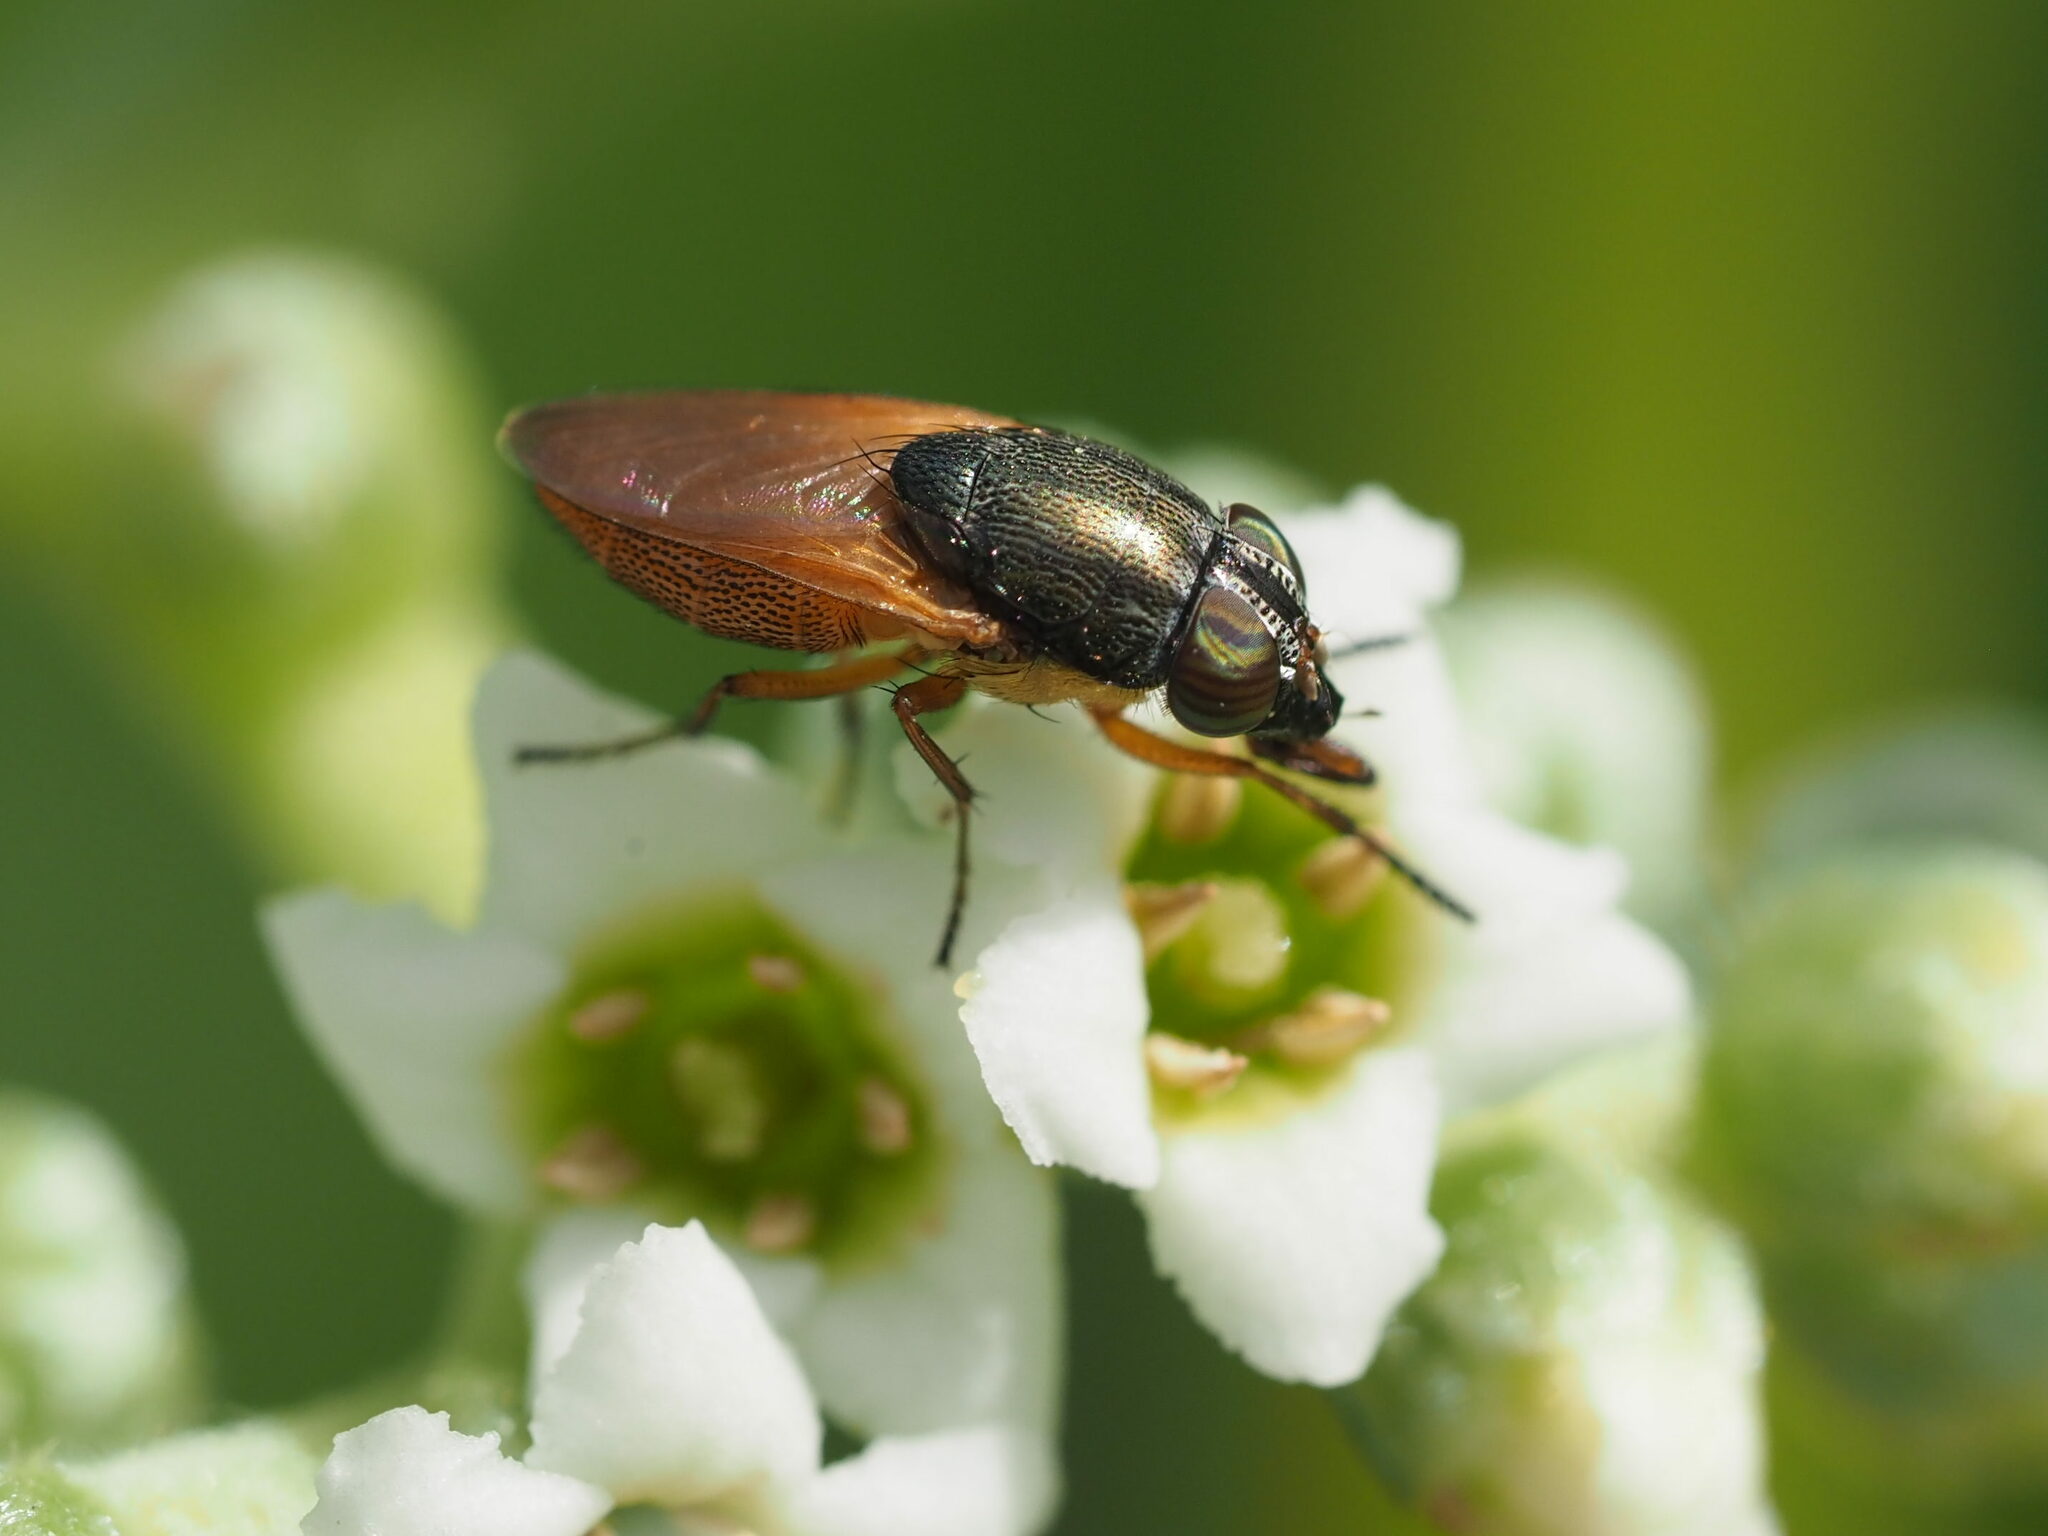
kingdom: Animalia
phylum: Arthropoda
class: Insecta
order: Diptera
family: Calliphoridae
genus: Rhinia
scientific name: Rhinia apicalis
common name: Fly
